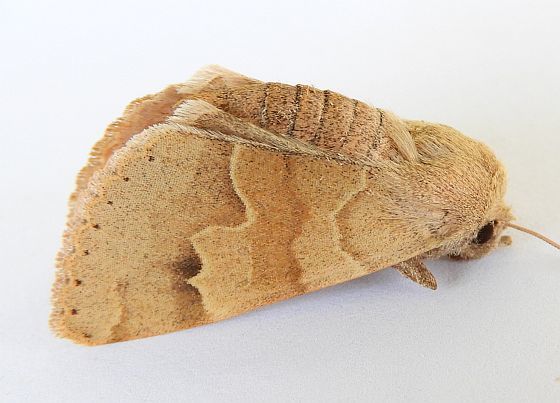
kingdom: Animalia
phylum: Arthropoda
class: Insecta
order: Lepidoptera
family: Erebidae
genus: Ulosyneda
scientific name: Ulosyneda valens
